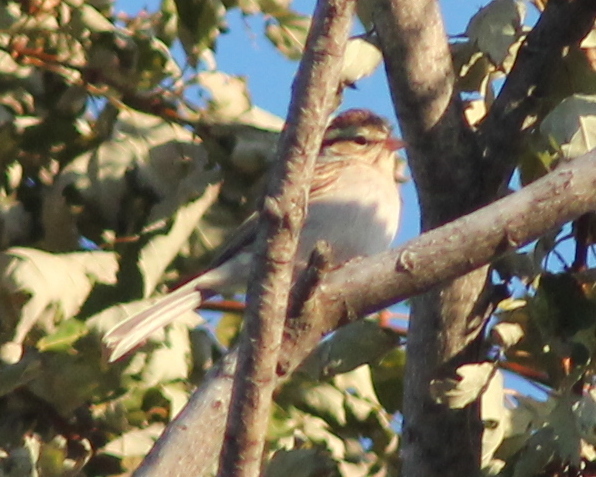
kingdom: Animalia
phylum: Chordata
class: Aves
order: Passeriformes
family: Passerellidae
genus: Spizella
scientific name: Spizella passerina
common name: Chipping sparrow
